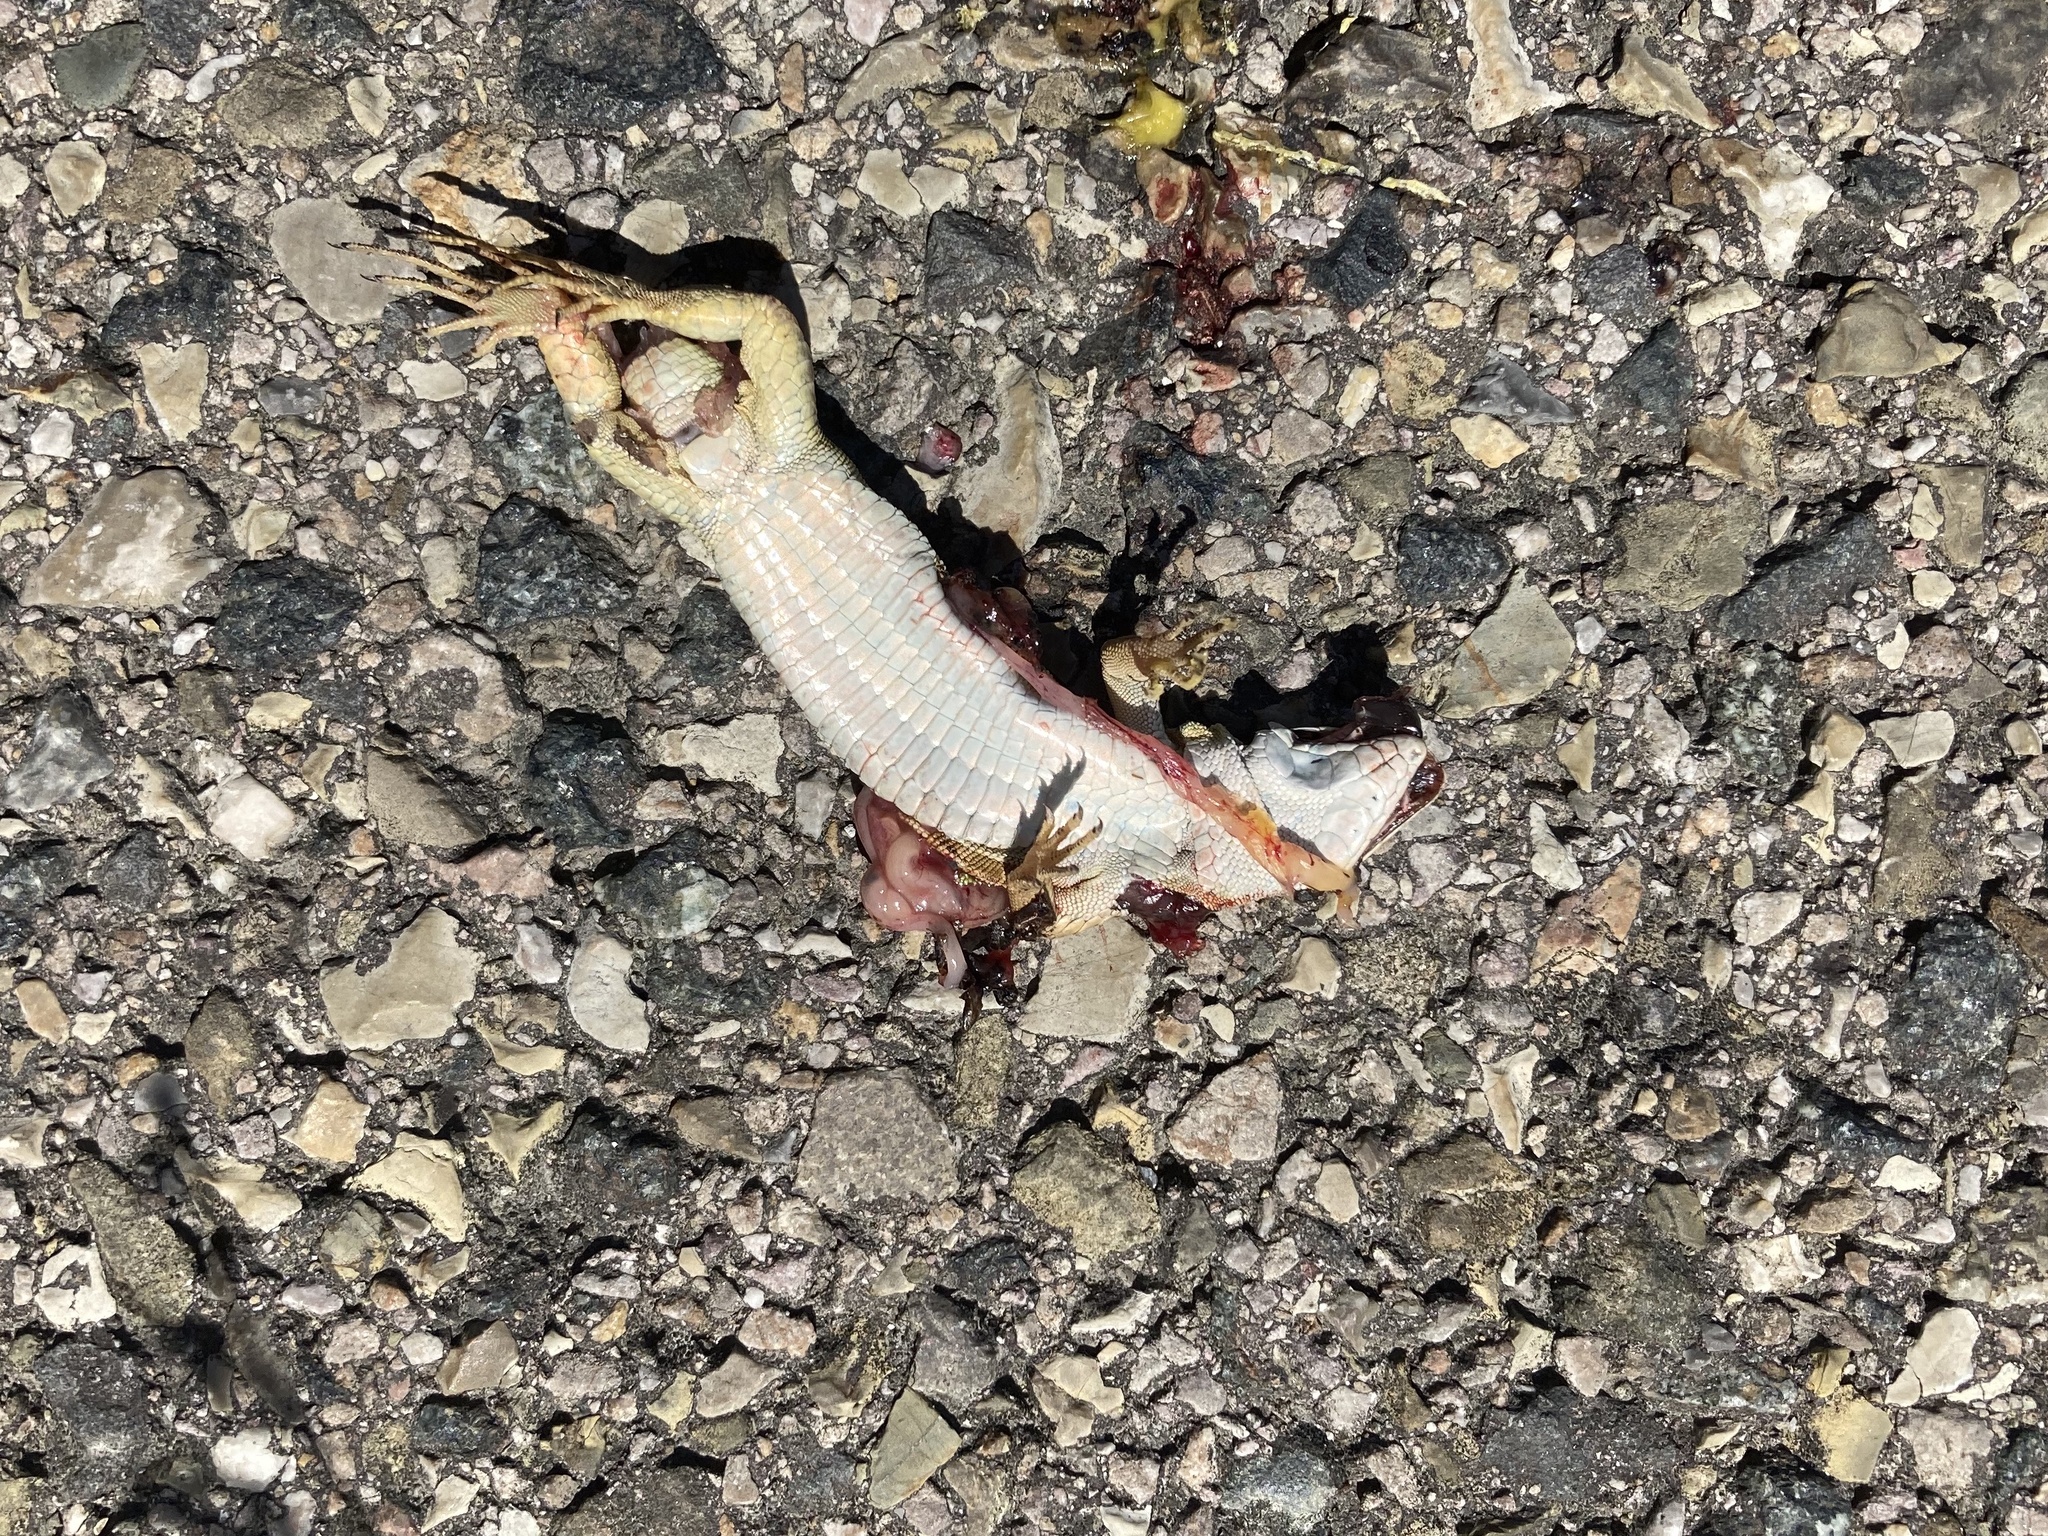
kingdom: Animalia
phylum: Chordata
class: Squamata
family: Lacertidae
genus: Podarcis
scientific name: Podarcis siculus
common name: Italian wall lizard
